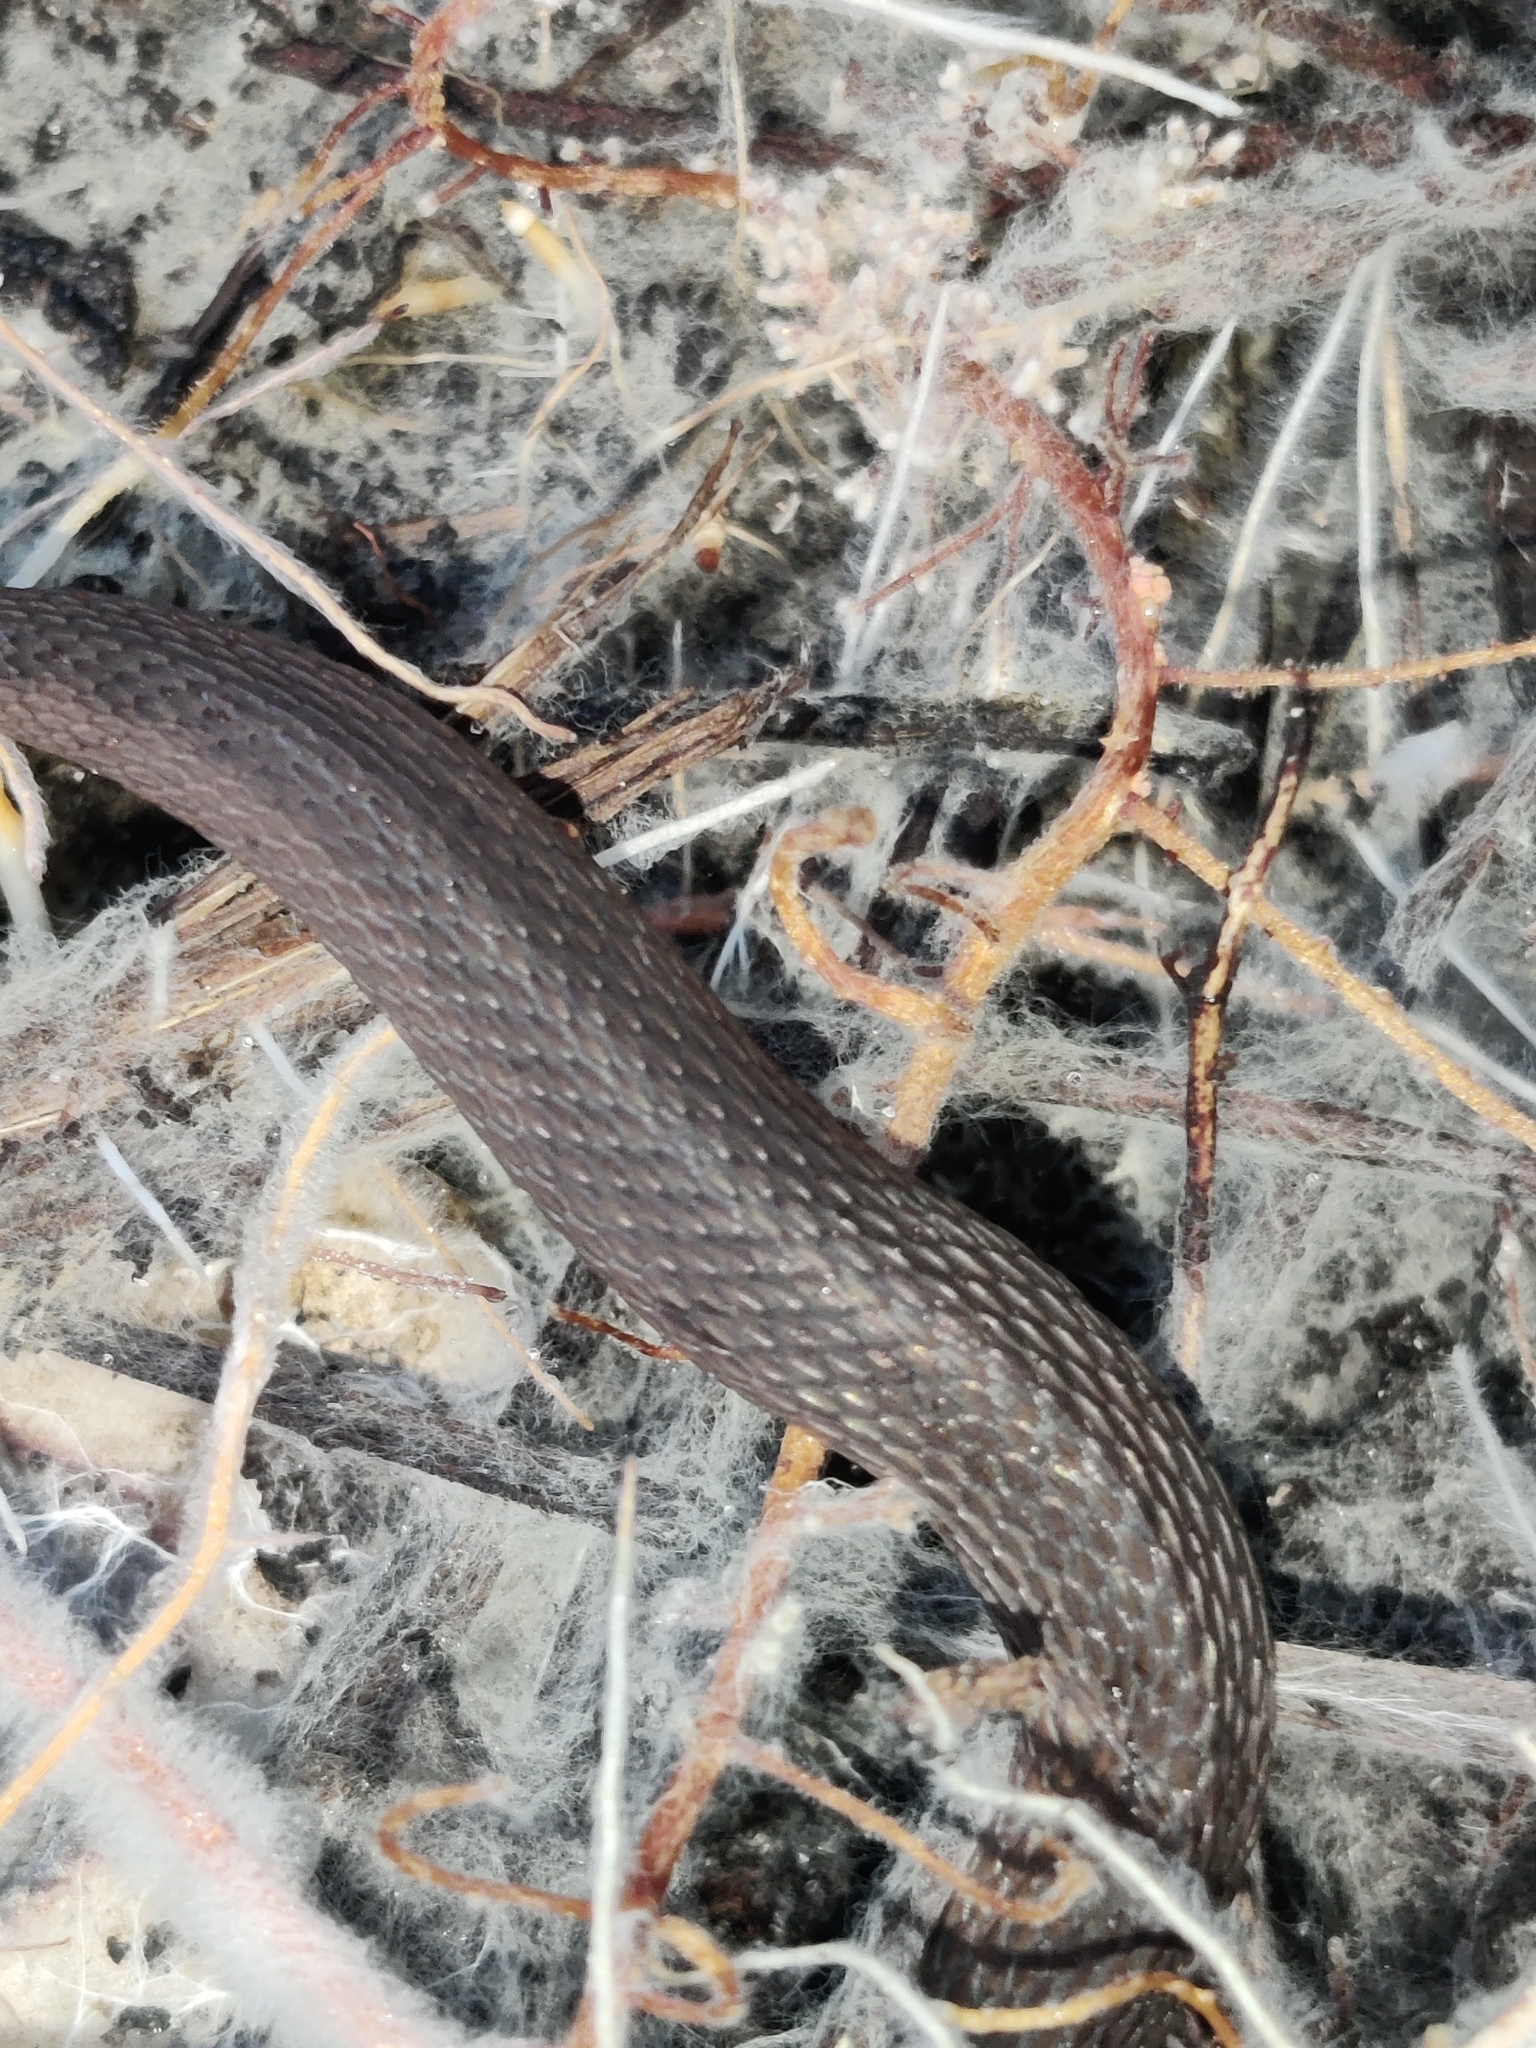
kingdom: Animalia
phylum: Chordata
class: Squamata
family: Colubridae
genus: Haldea
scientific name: Haldea striatula
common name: Rough earth snake
